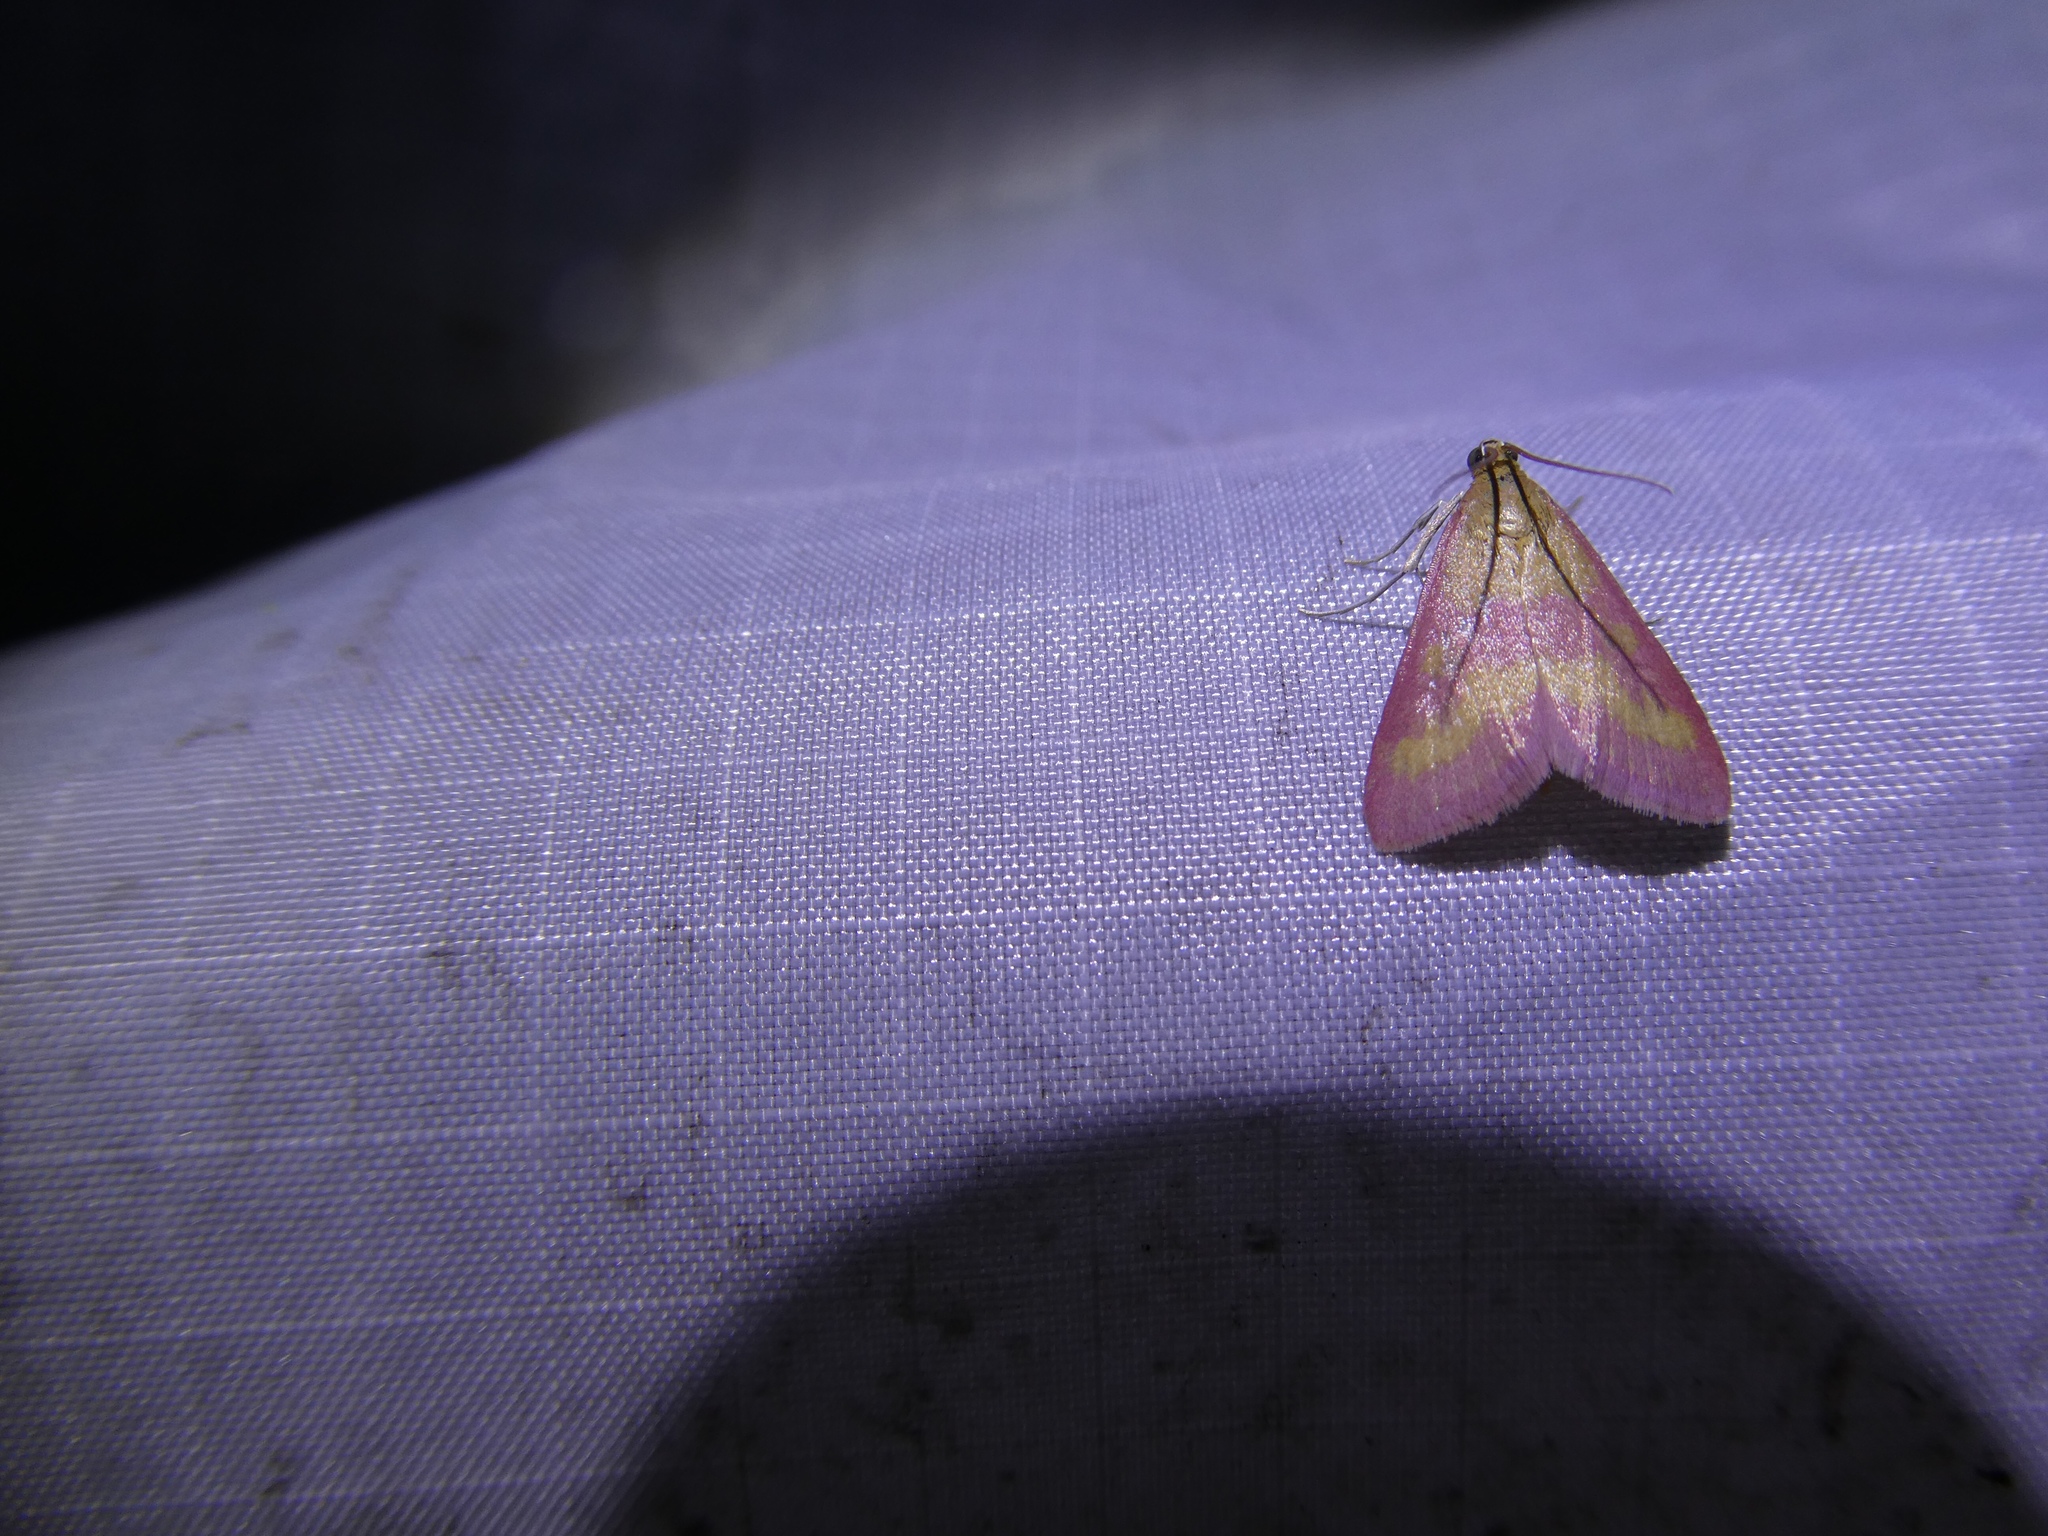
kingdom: Animalia
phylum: Arthropoda
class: Insecta
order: Lepidoptera
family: Crambidae
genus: Pyrausta
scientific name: Pyrausta laticlavia
